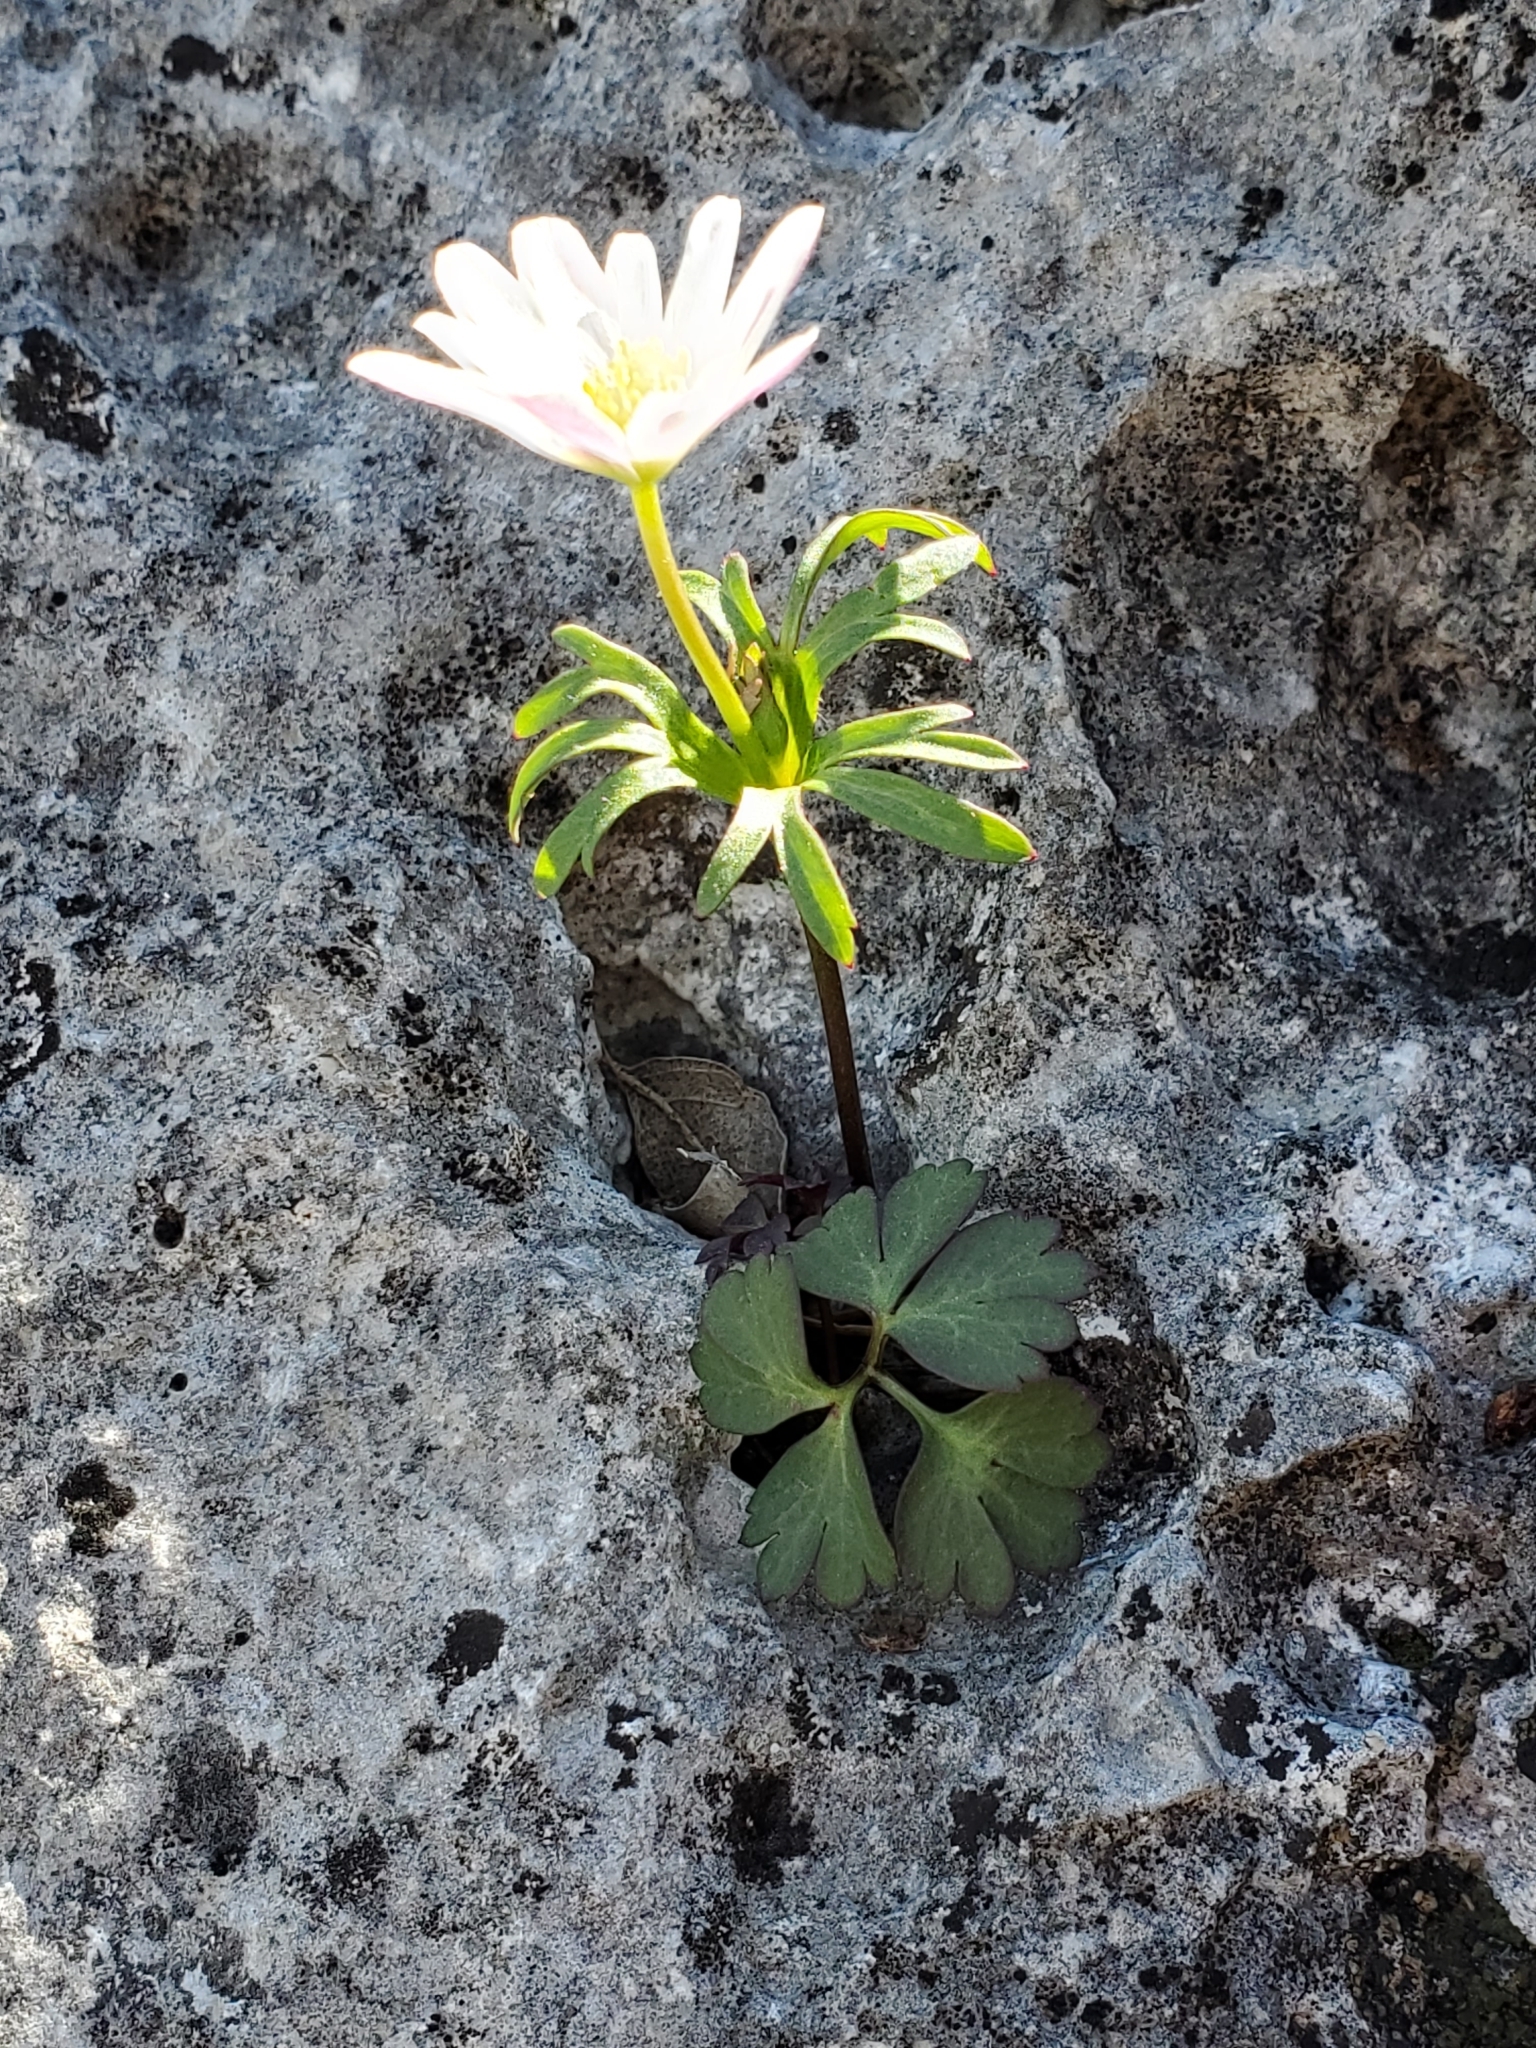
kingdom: Plantae
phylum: Tracheophyta
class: Magnoliopsida
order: Ranunculales
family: Ranunculaceae
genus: Anemone
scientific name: Anemone edwardsiana
